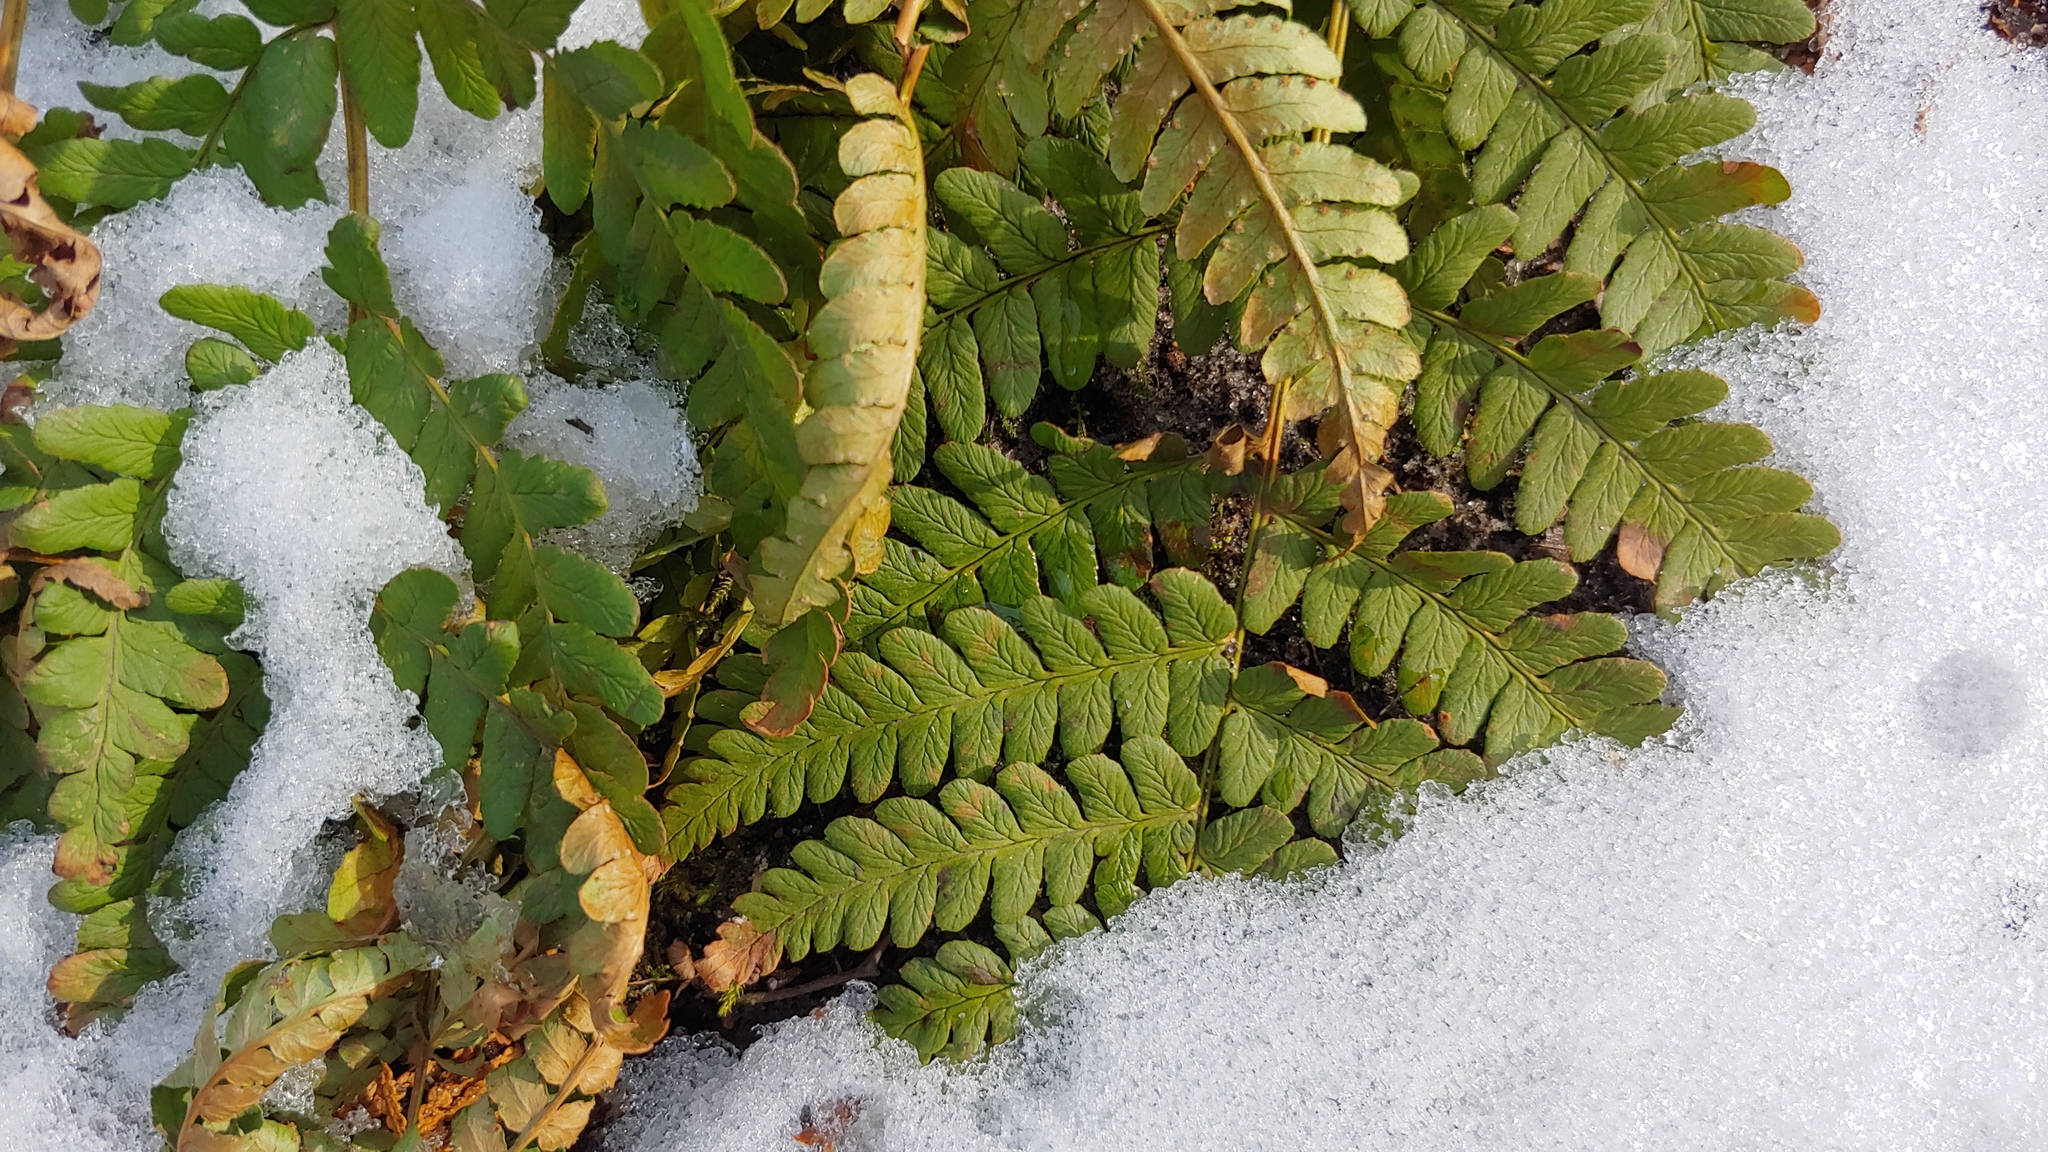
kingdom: Plantae
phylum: Tracheophyta
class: Polypodiopsida
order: Polypodiales
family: Dryopteridaceae
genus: Dryopteris
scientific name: Dryopteris marginalis
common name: Marginal wood fern
